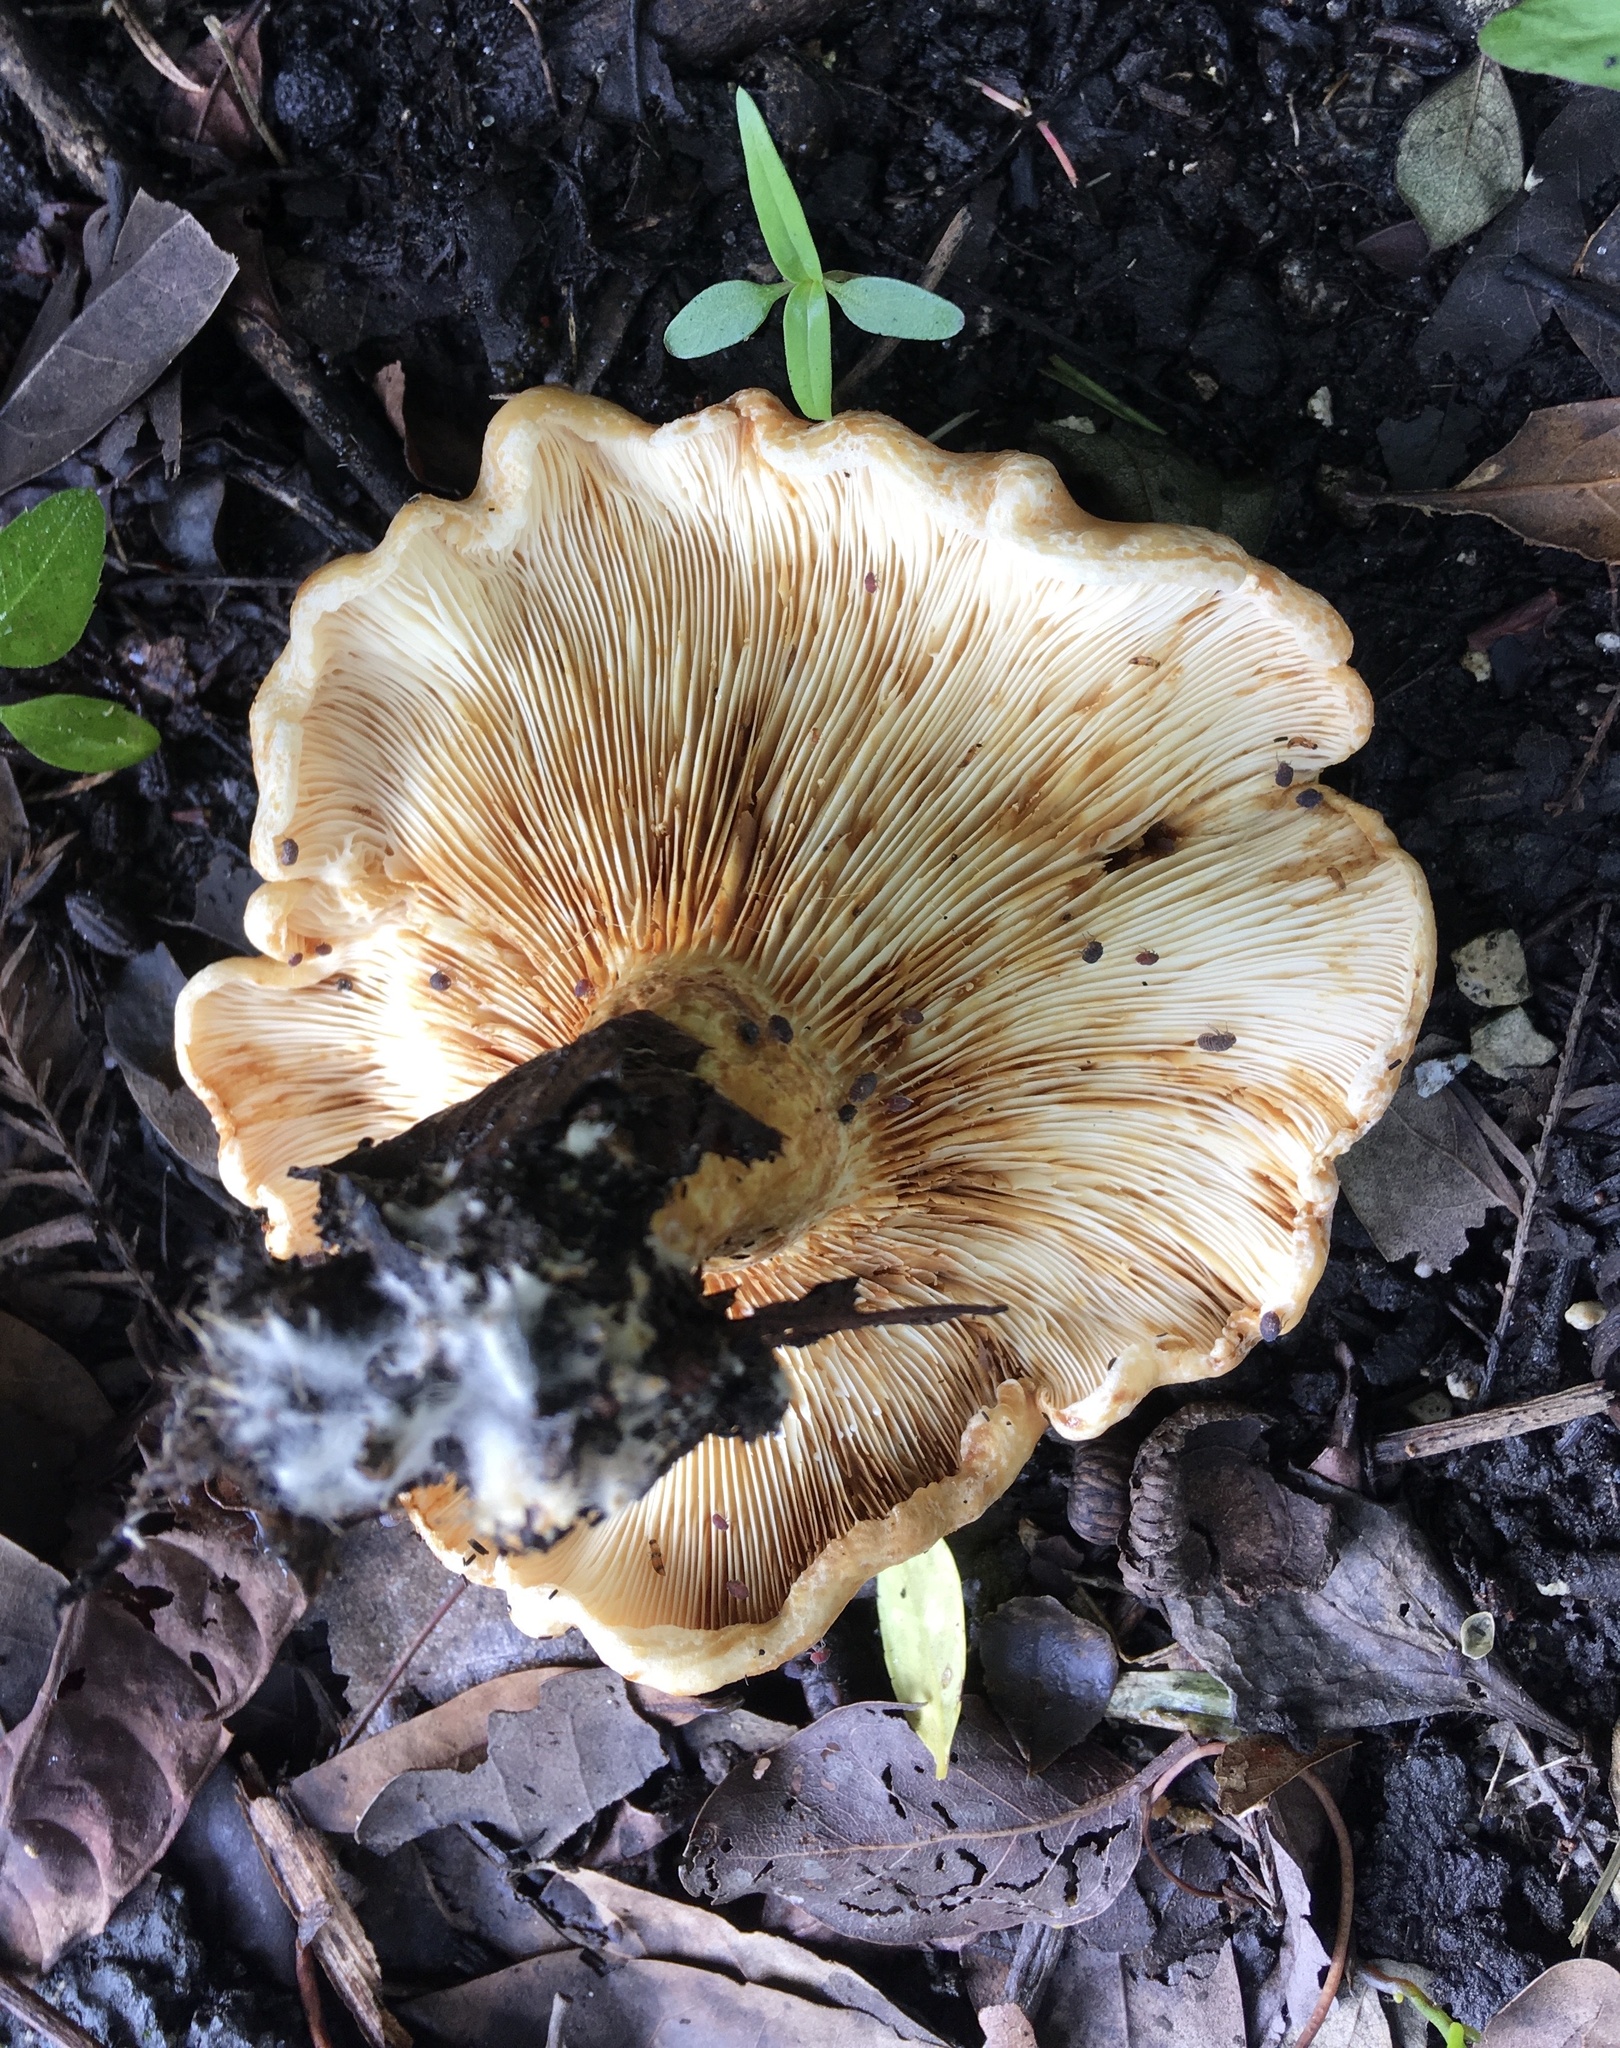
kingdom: Fungi
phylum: Basidiomycota
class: Agaricomycetes
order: Russulales
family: Russulaceae
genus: Lactarius
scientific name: Lactarius psammicola
